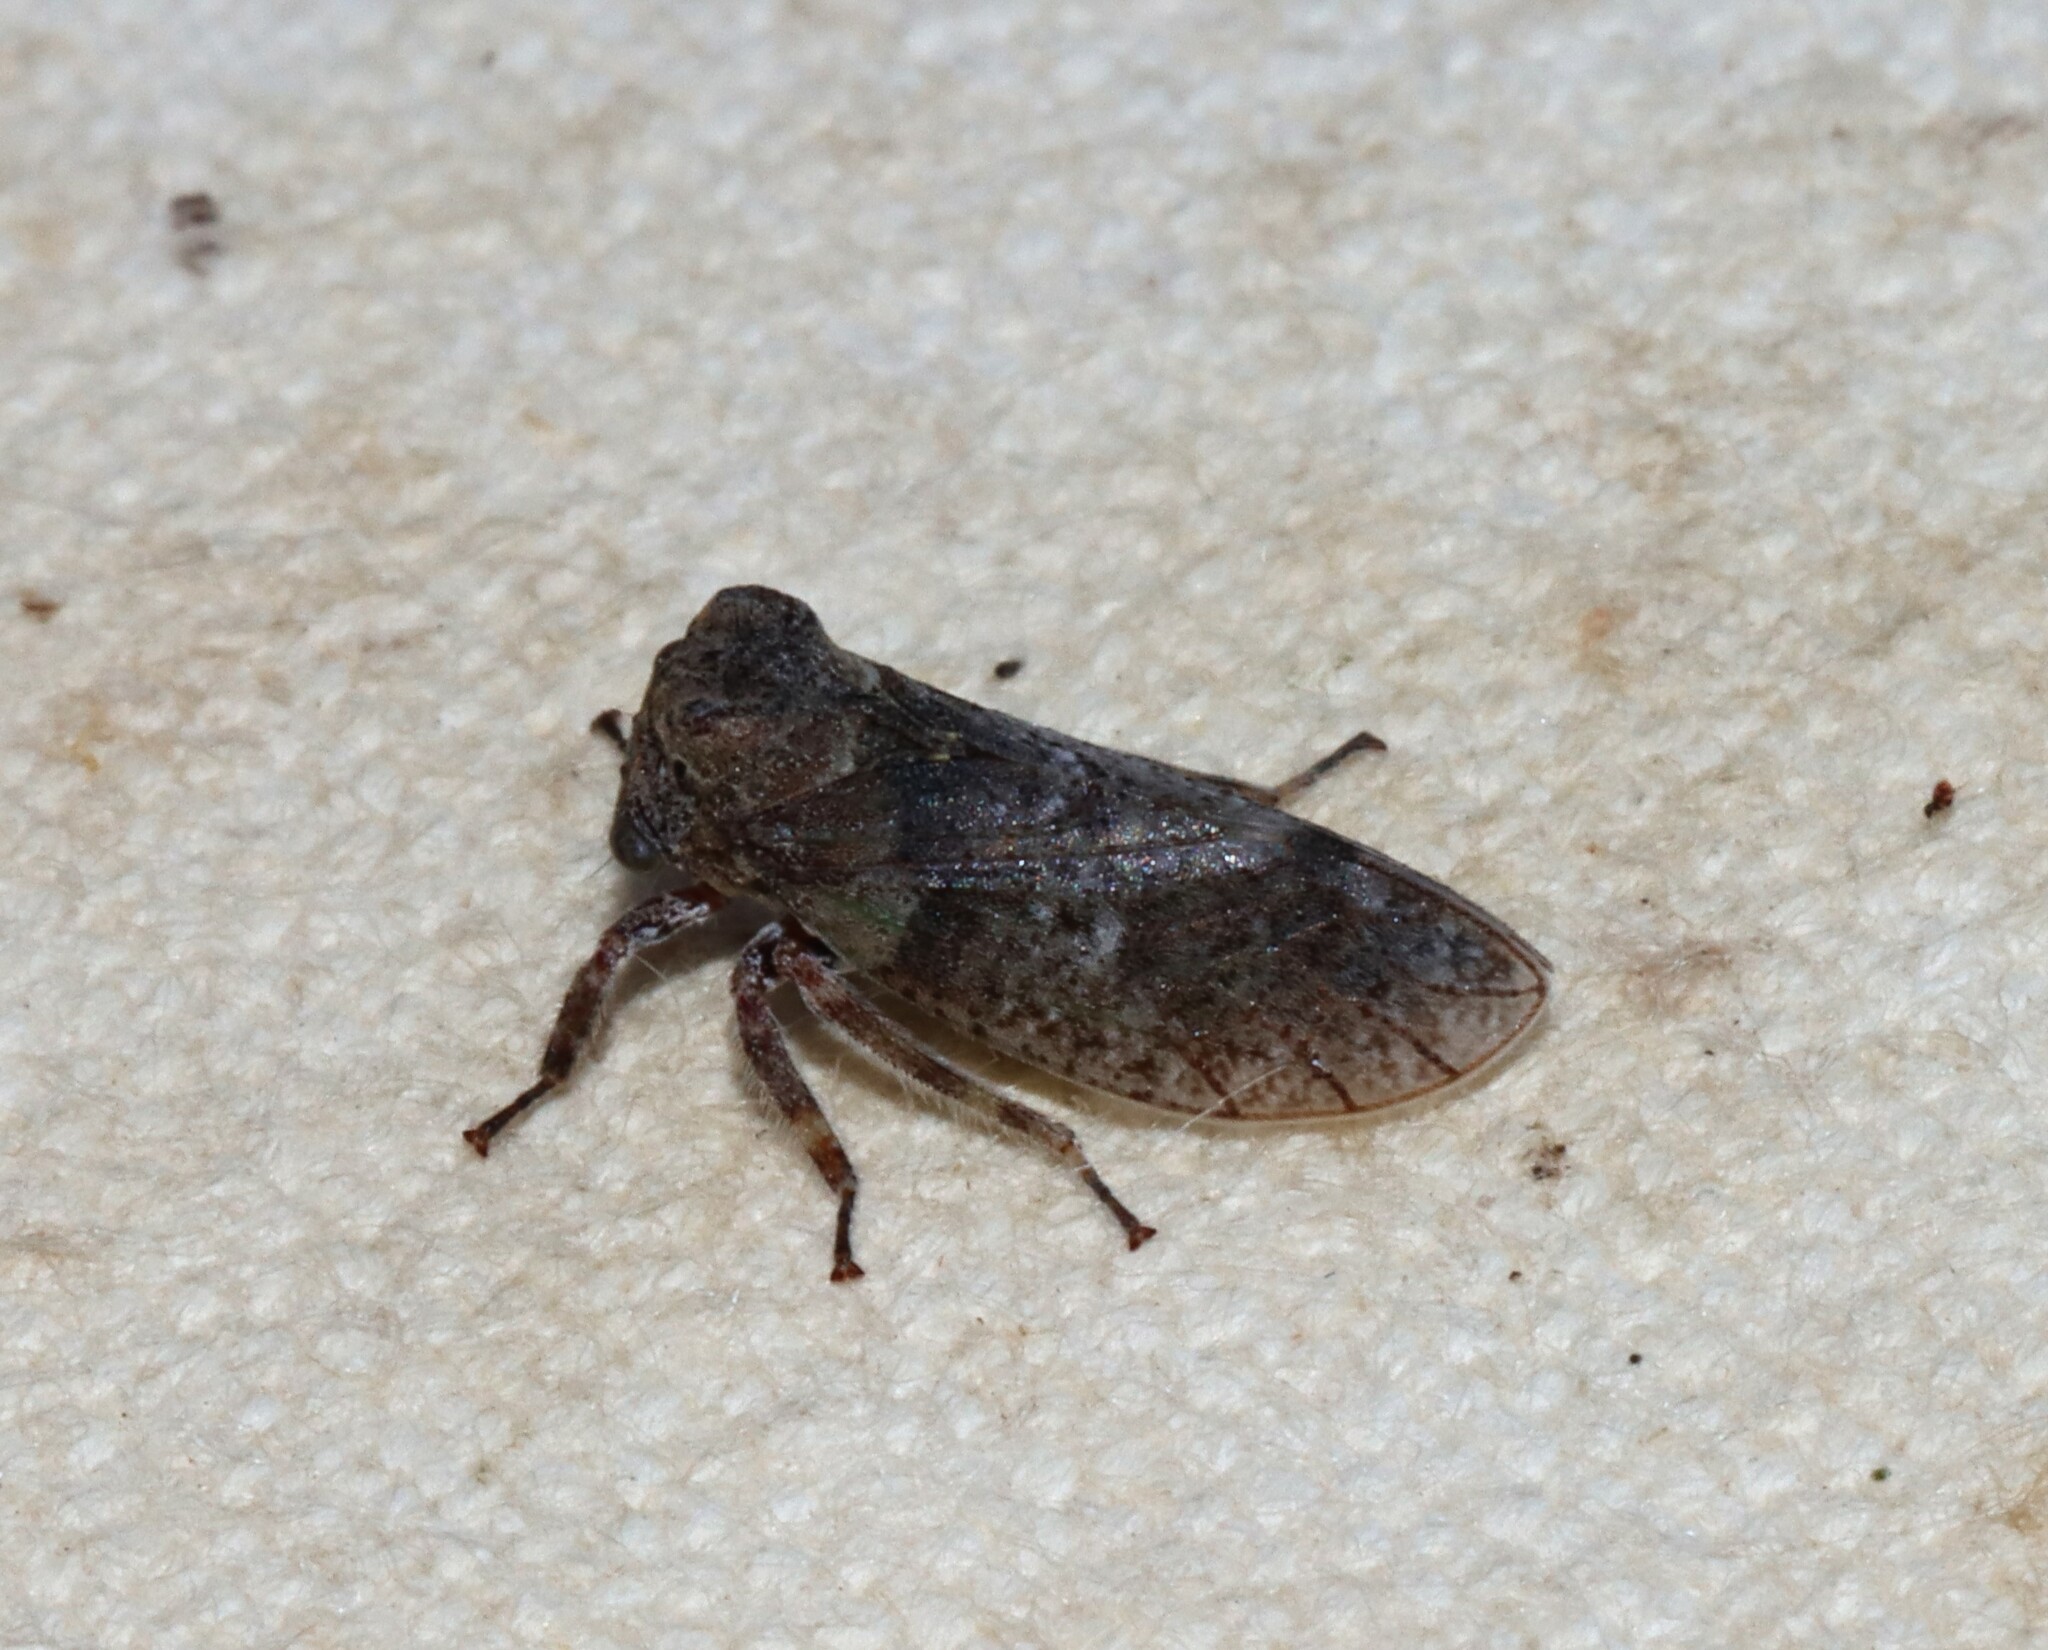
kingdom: Animalia
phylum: Arthropoda
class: Insecta
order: Hemiptera
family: Membracidae
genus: Microcentrus
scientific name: Microcentrus perdita
